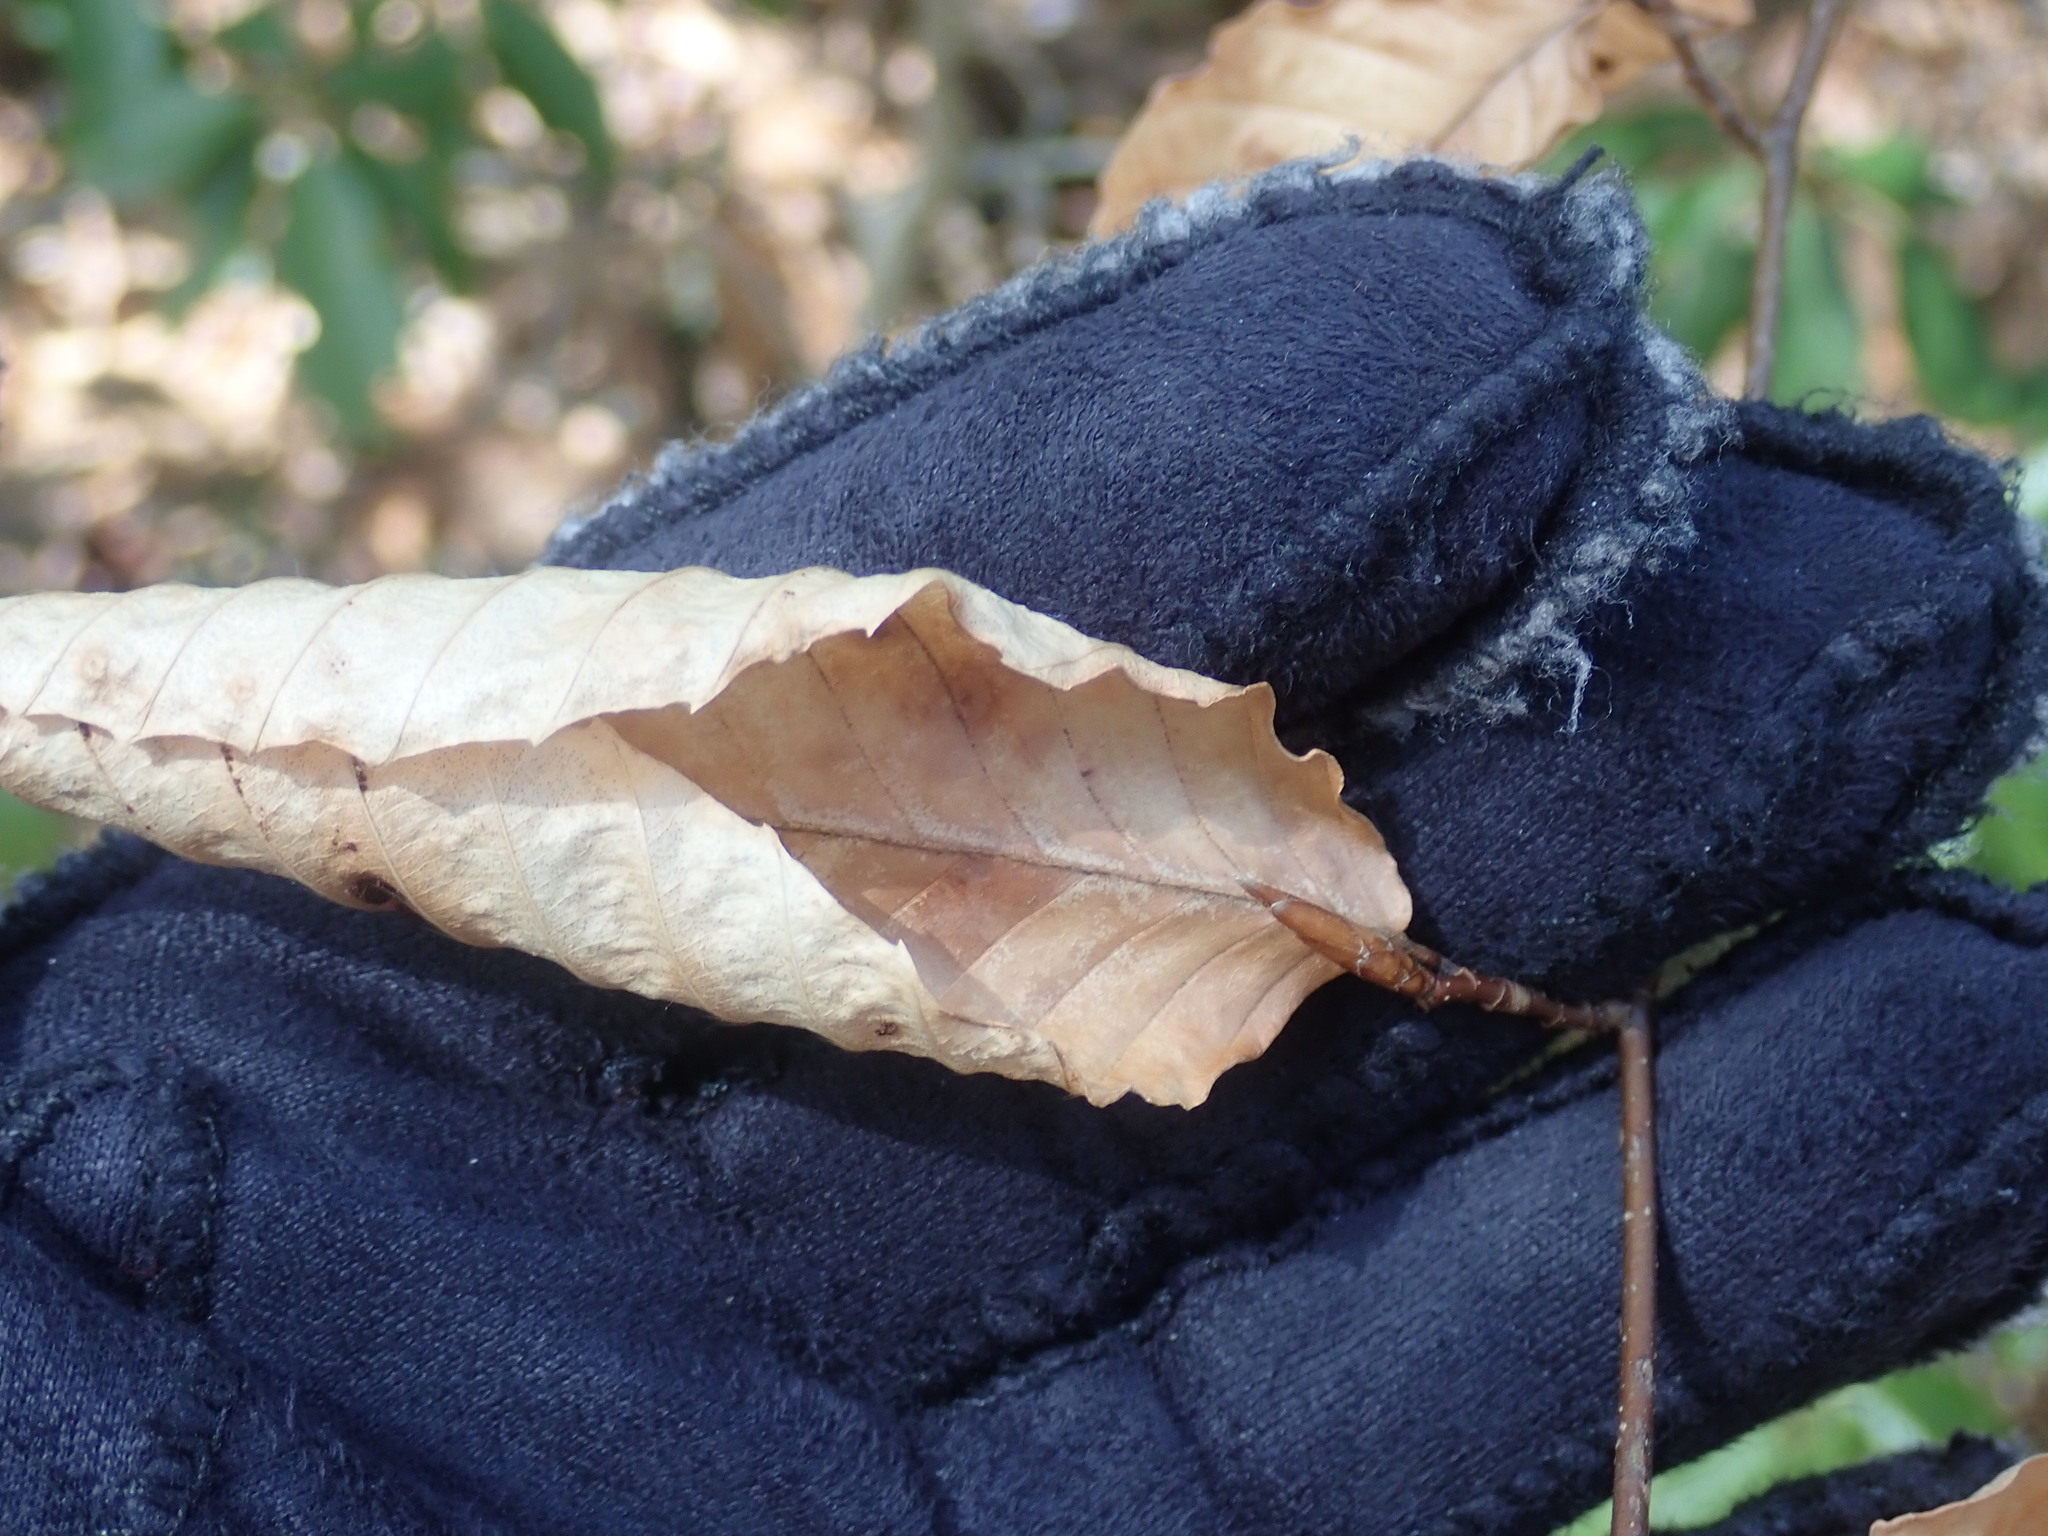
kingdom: Plantae
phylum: Tracheophyta
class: Magnoliopsida
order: Fagales
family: Fagaceae
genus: Fagus
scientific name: Fagus grandifolia
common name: American beech
